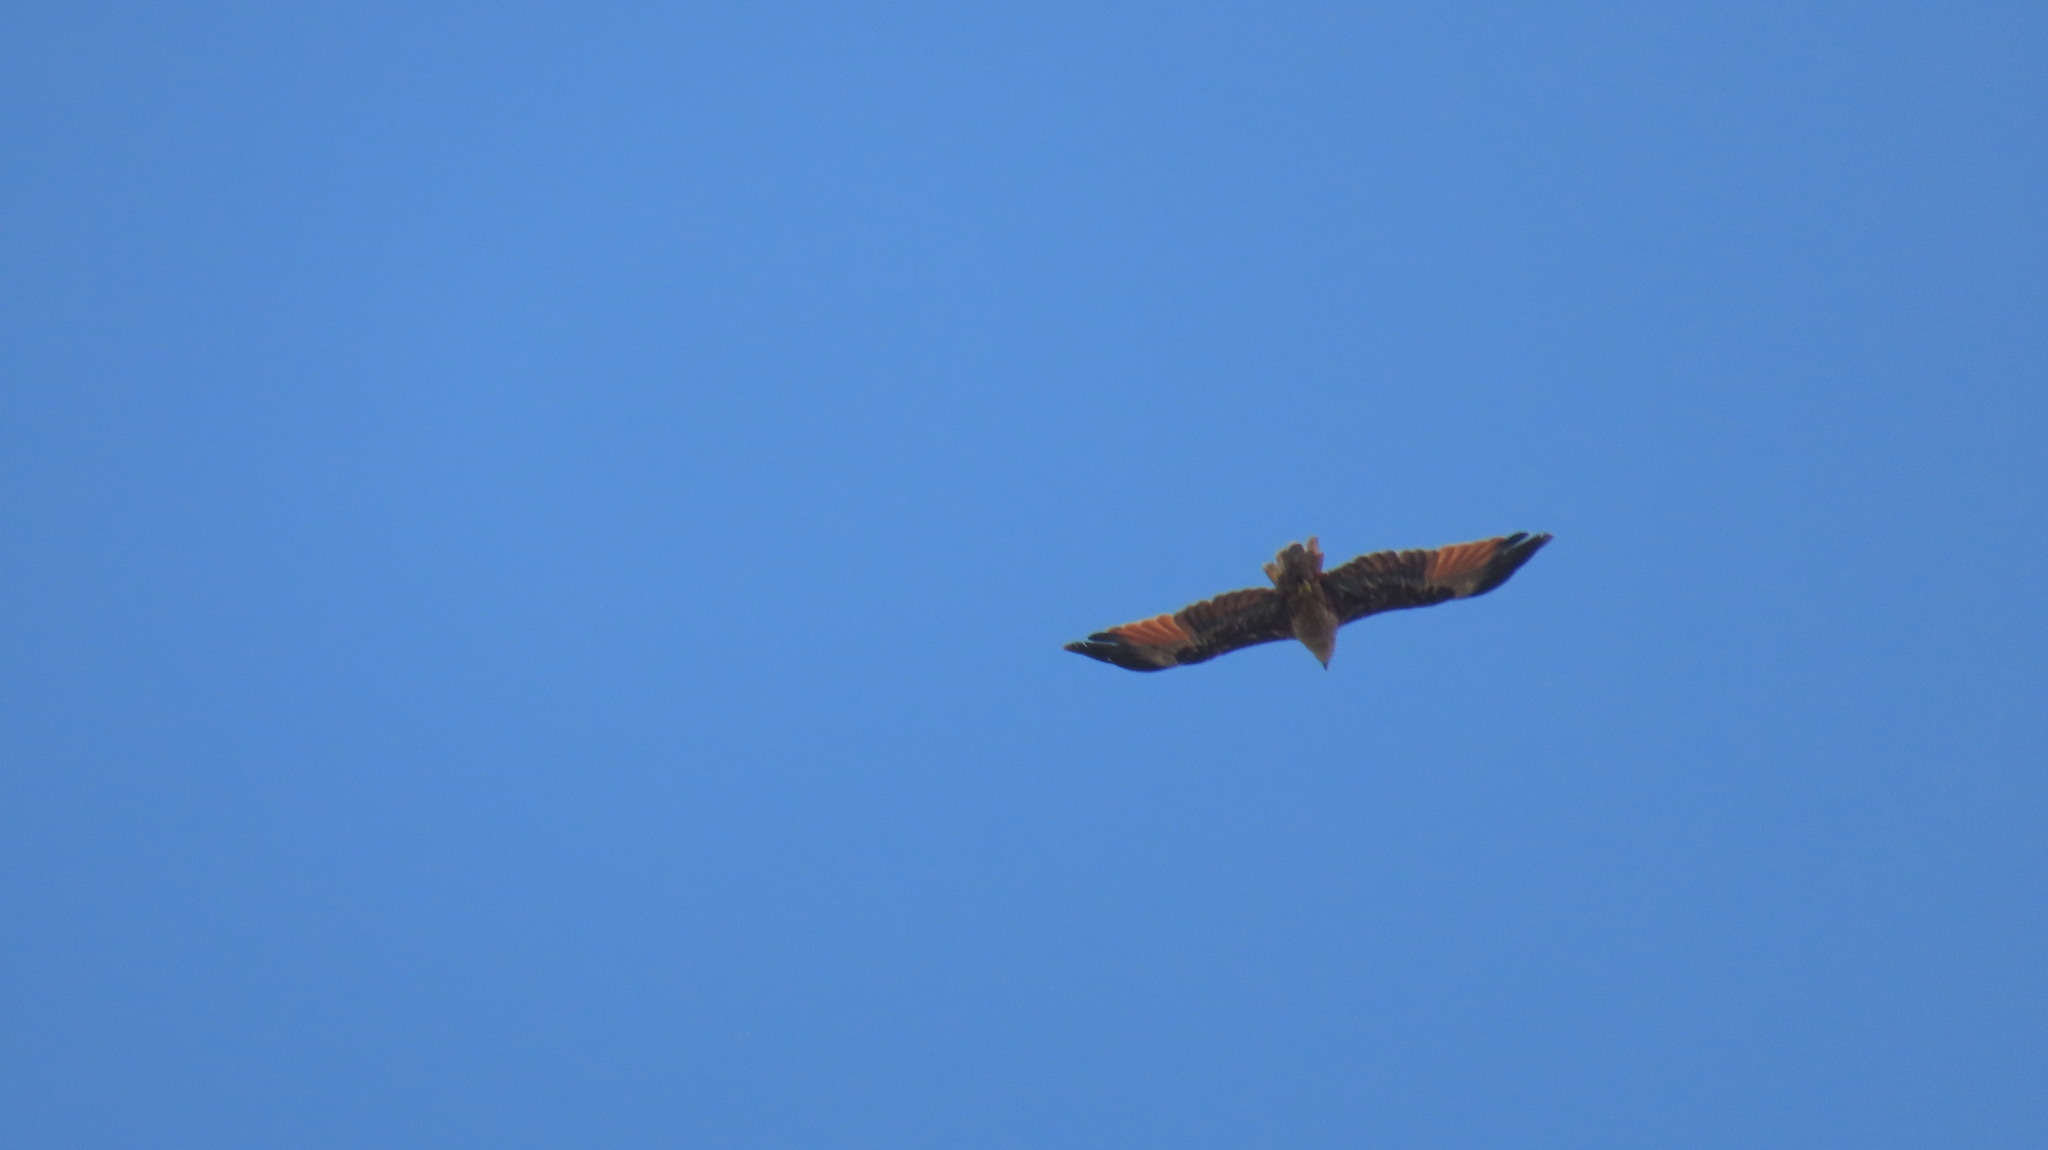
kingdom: Animalia
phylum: Chordata
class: Aves
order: Accipitriformes
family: Accipitridae
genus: Haliastur
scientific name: Haliastur indus
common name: Brahminy kite
